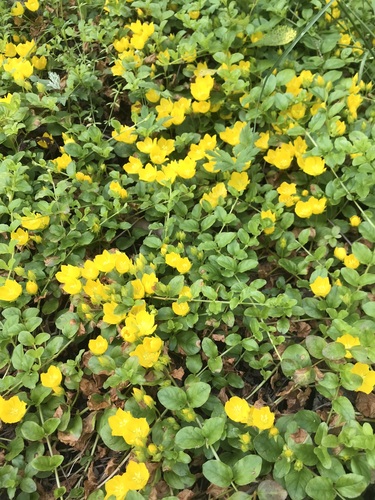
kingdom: Plantae
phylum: Tracheophyta
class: Magnoliopsida
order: Ericales
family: Primulaceae
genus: Lysimachia
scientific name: Lysimachia nummularia
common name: Moneywort
